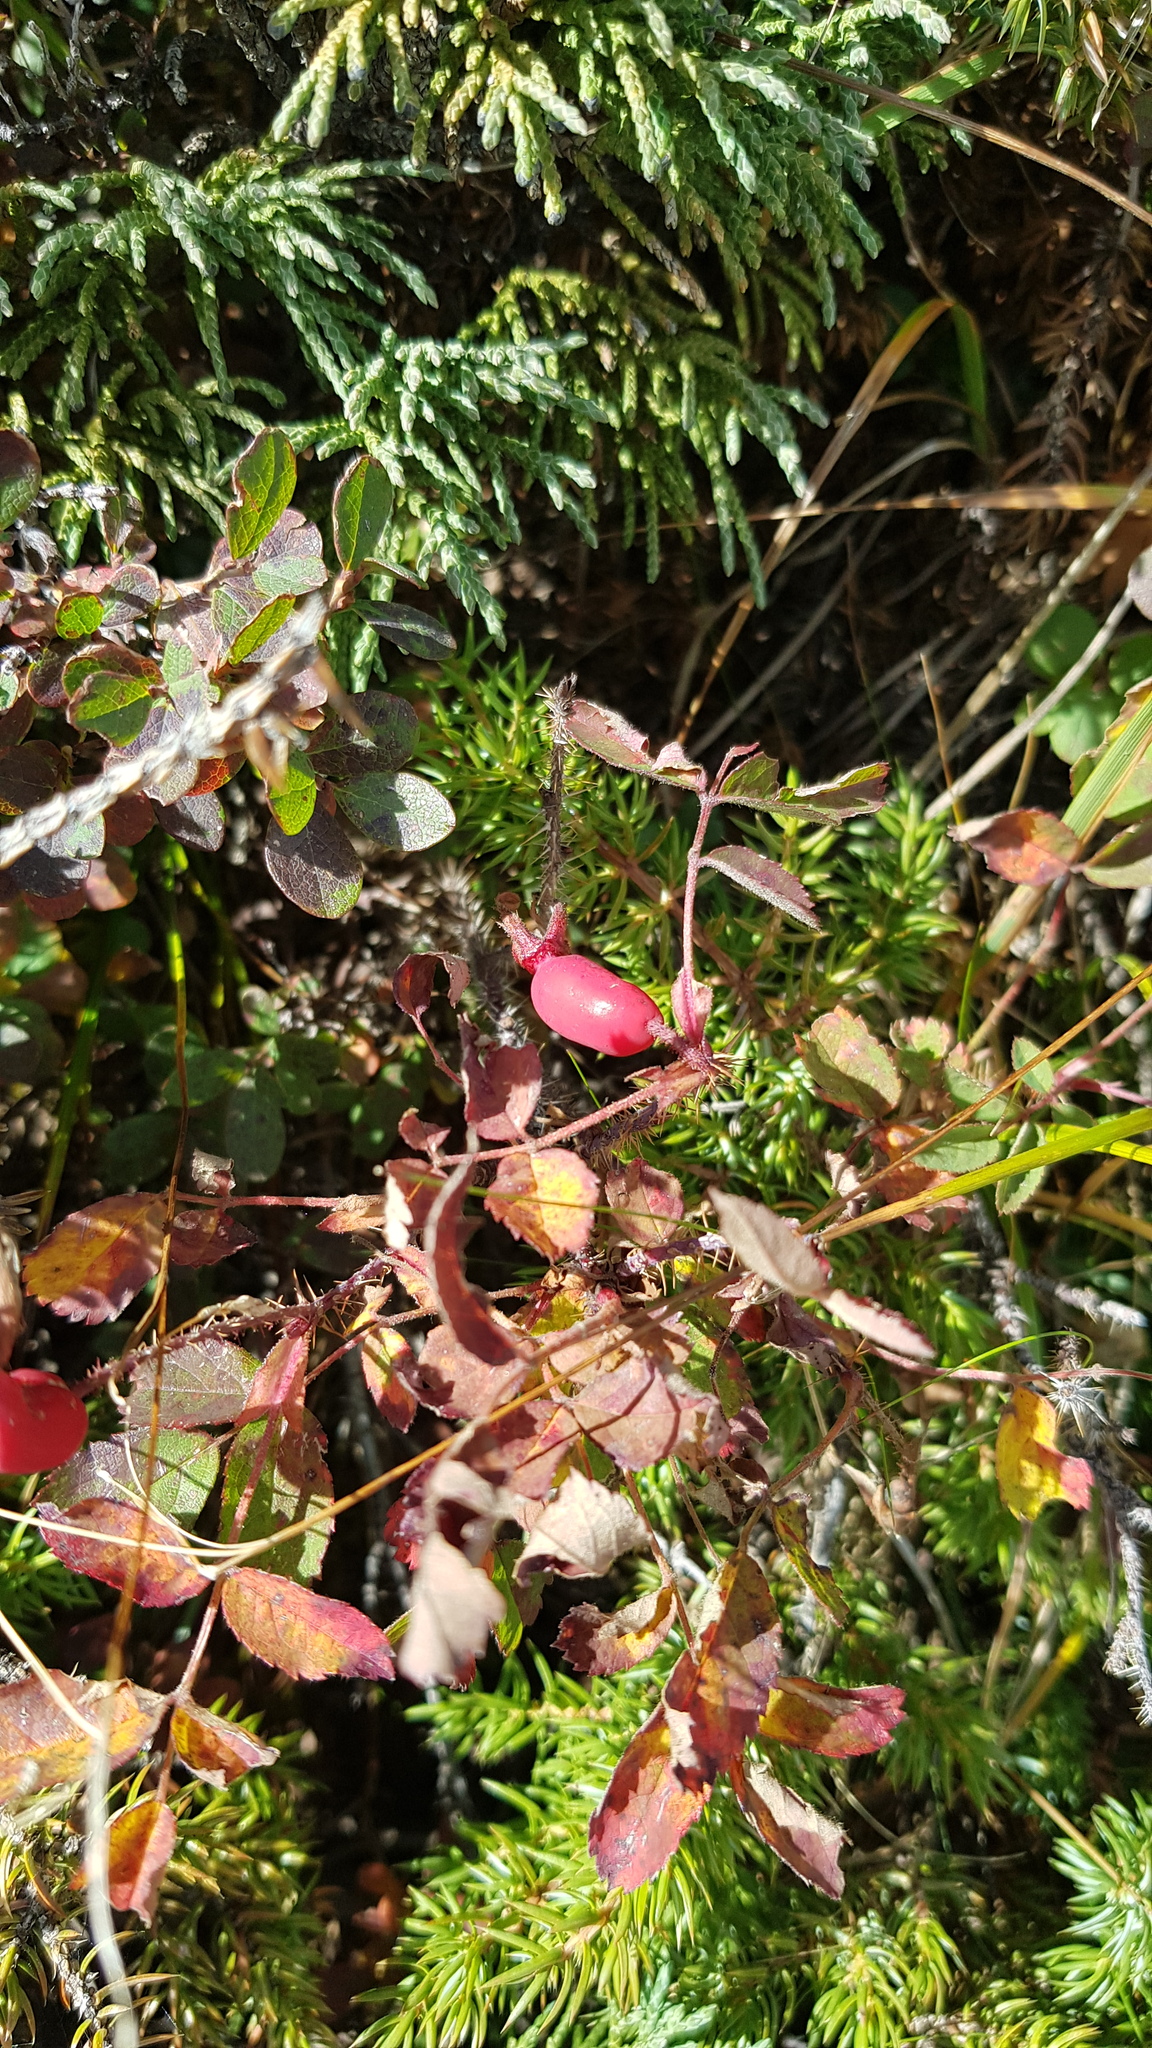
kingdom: Plantae
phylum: Tracheophyta
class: Magnoliopsida
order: Rosales
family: Rosaceae
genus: Rosa
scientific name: Rosa acicularis
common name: Prickly rose
